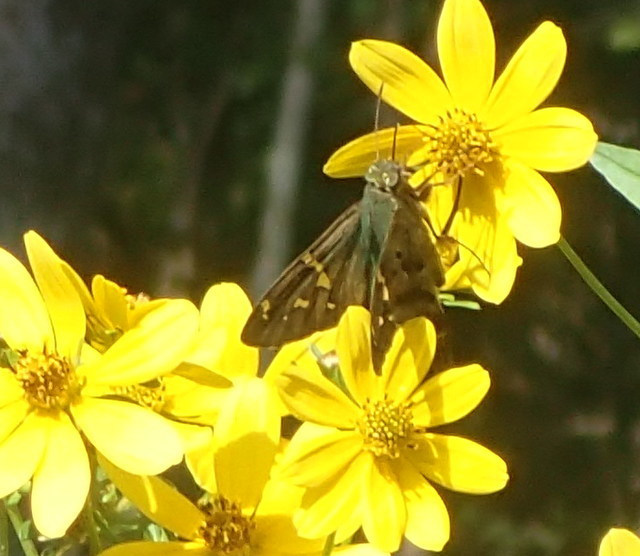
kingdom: Animalia
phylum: Arthropoda
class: Insecta
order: Lepidoptera
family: Hesperiidae
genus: Urbanus
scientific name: Urbanus proteus
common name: Long-tailed skipper
